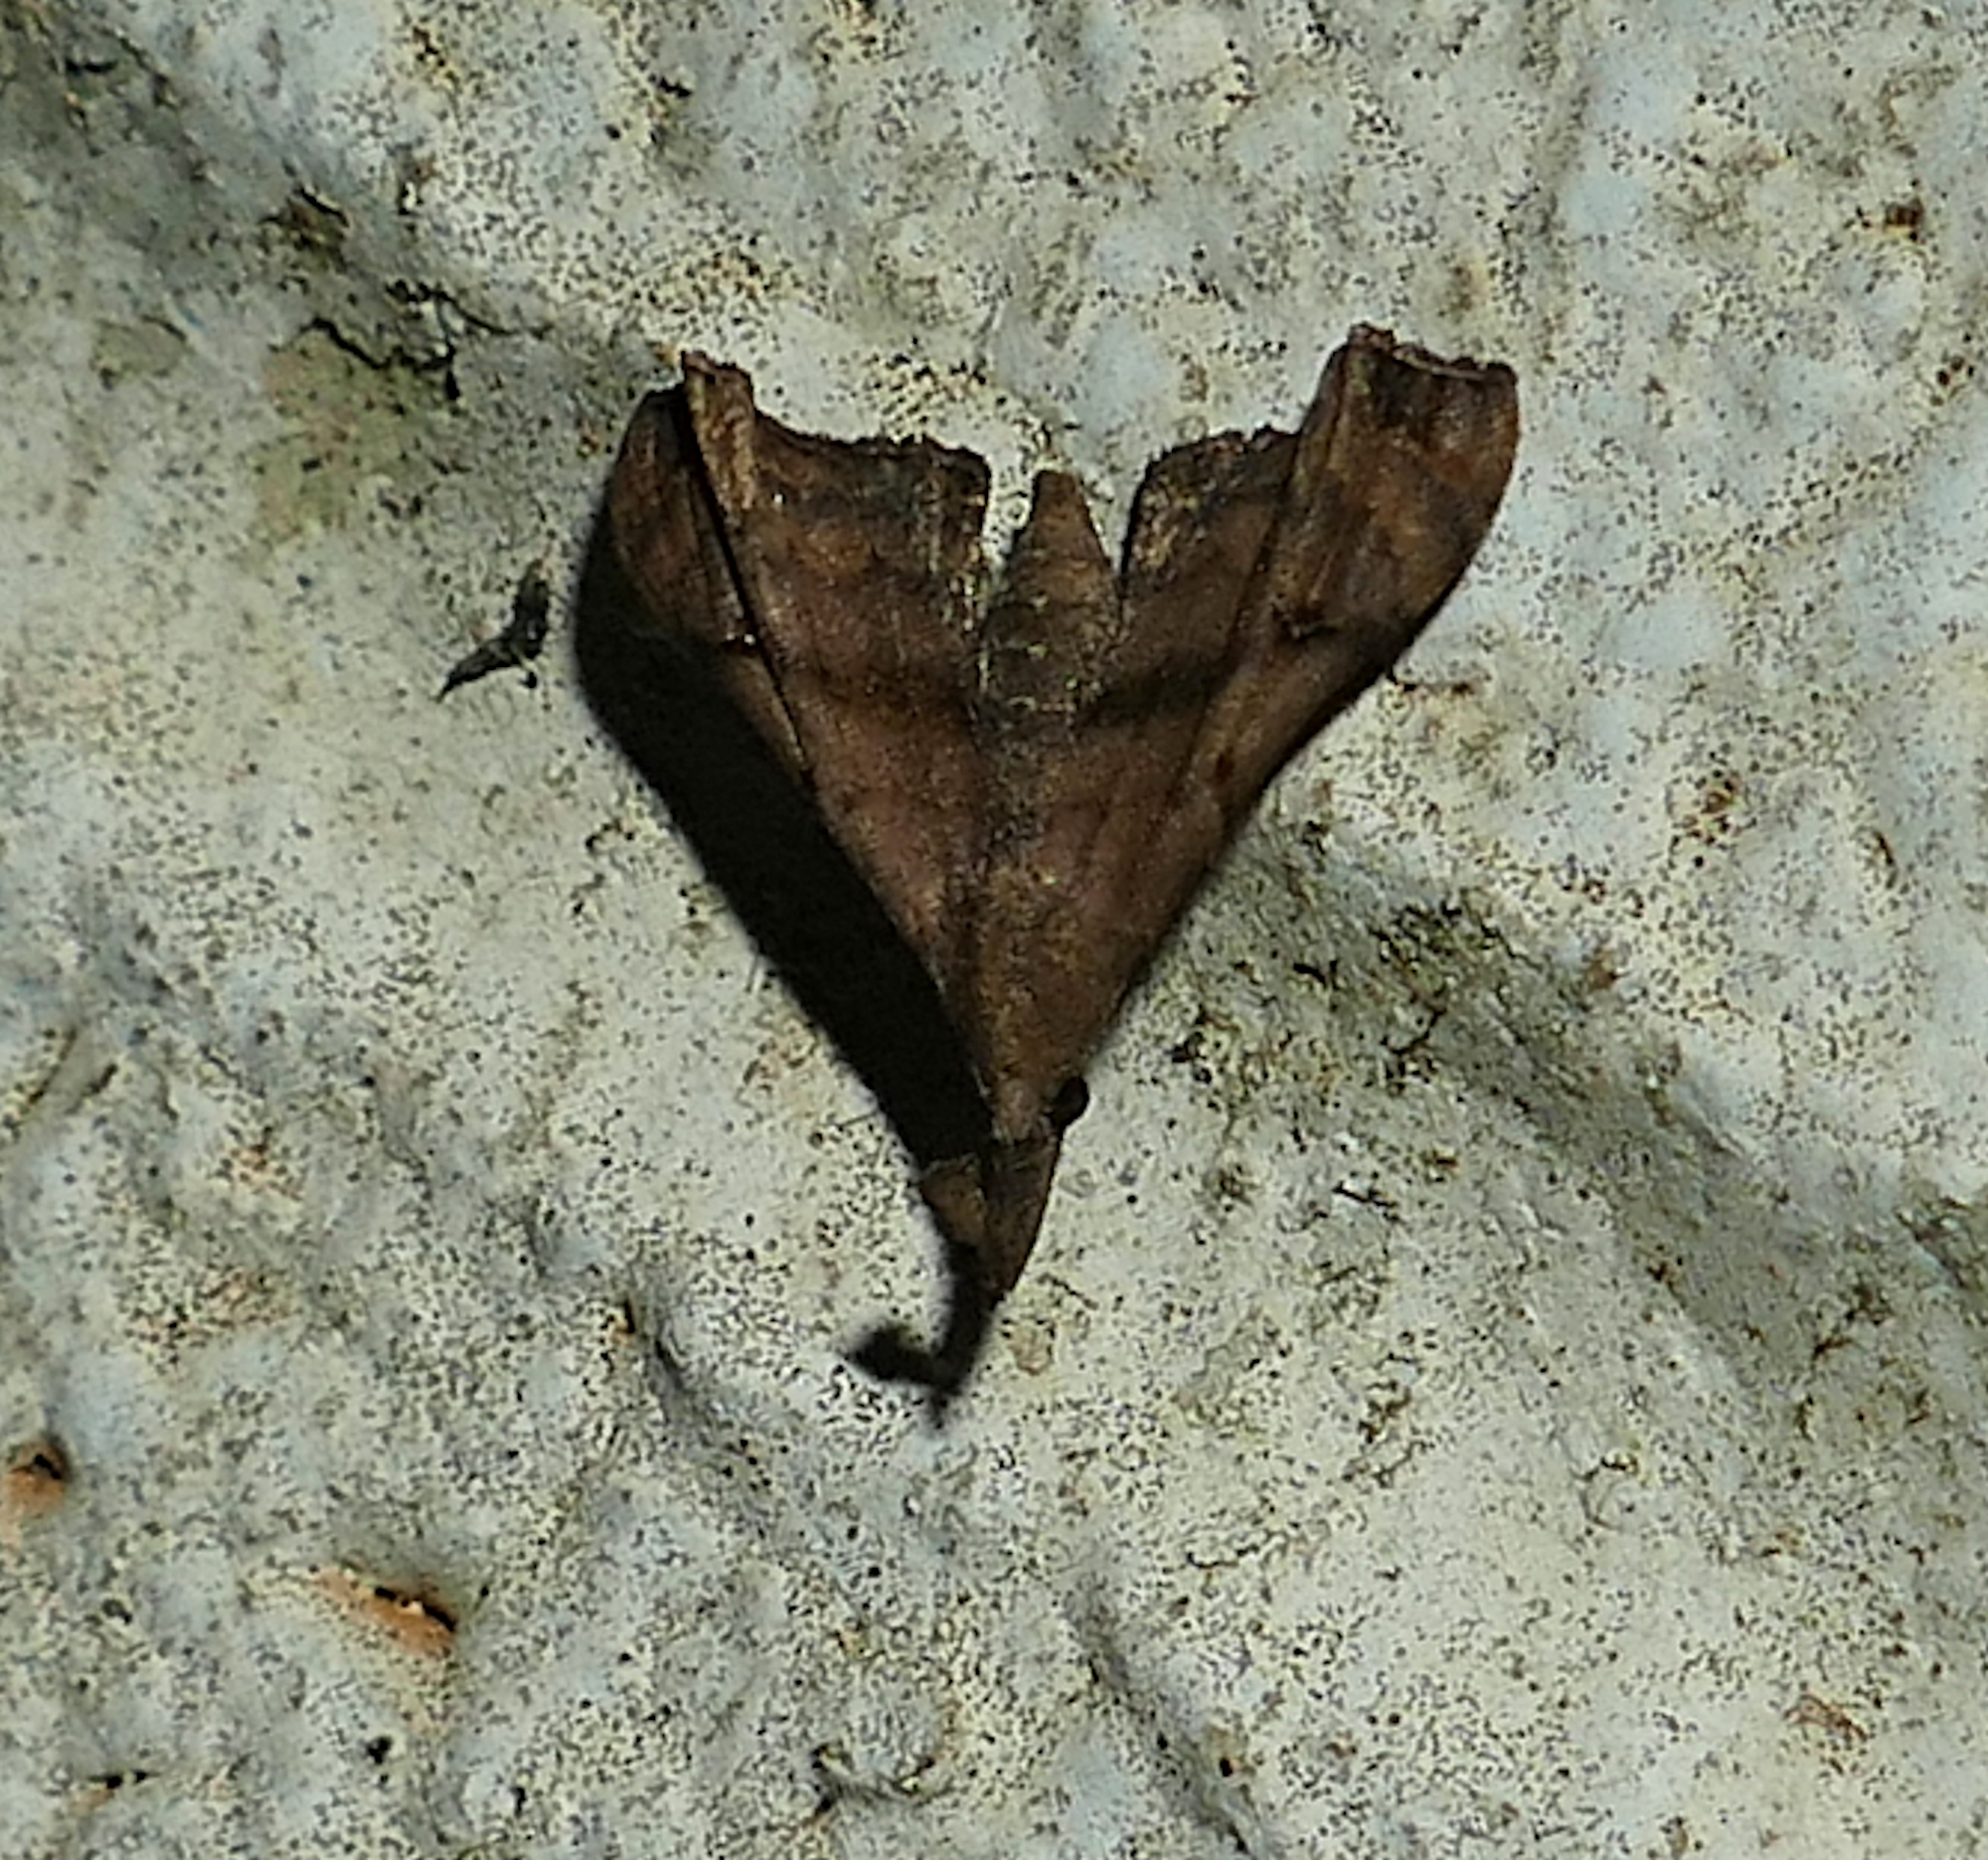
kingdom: Animalia
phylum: Arthropoda
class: Insecta
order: Lepidoptera
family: Erebidae
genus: Palthis
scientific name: Palthis asopialis
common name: Faint-spotted palthis moth
